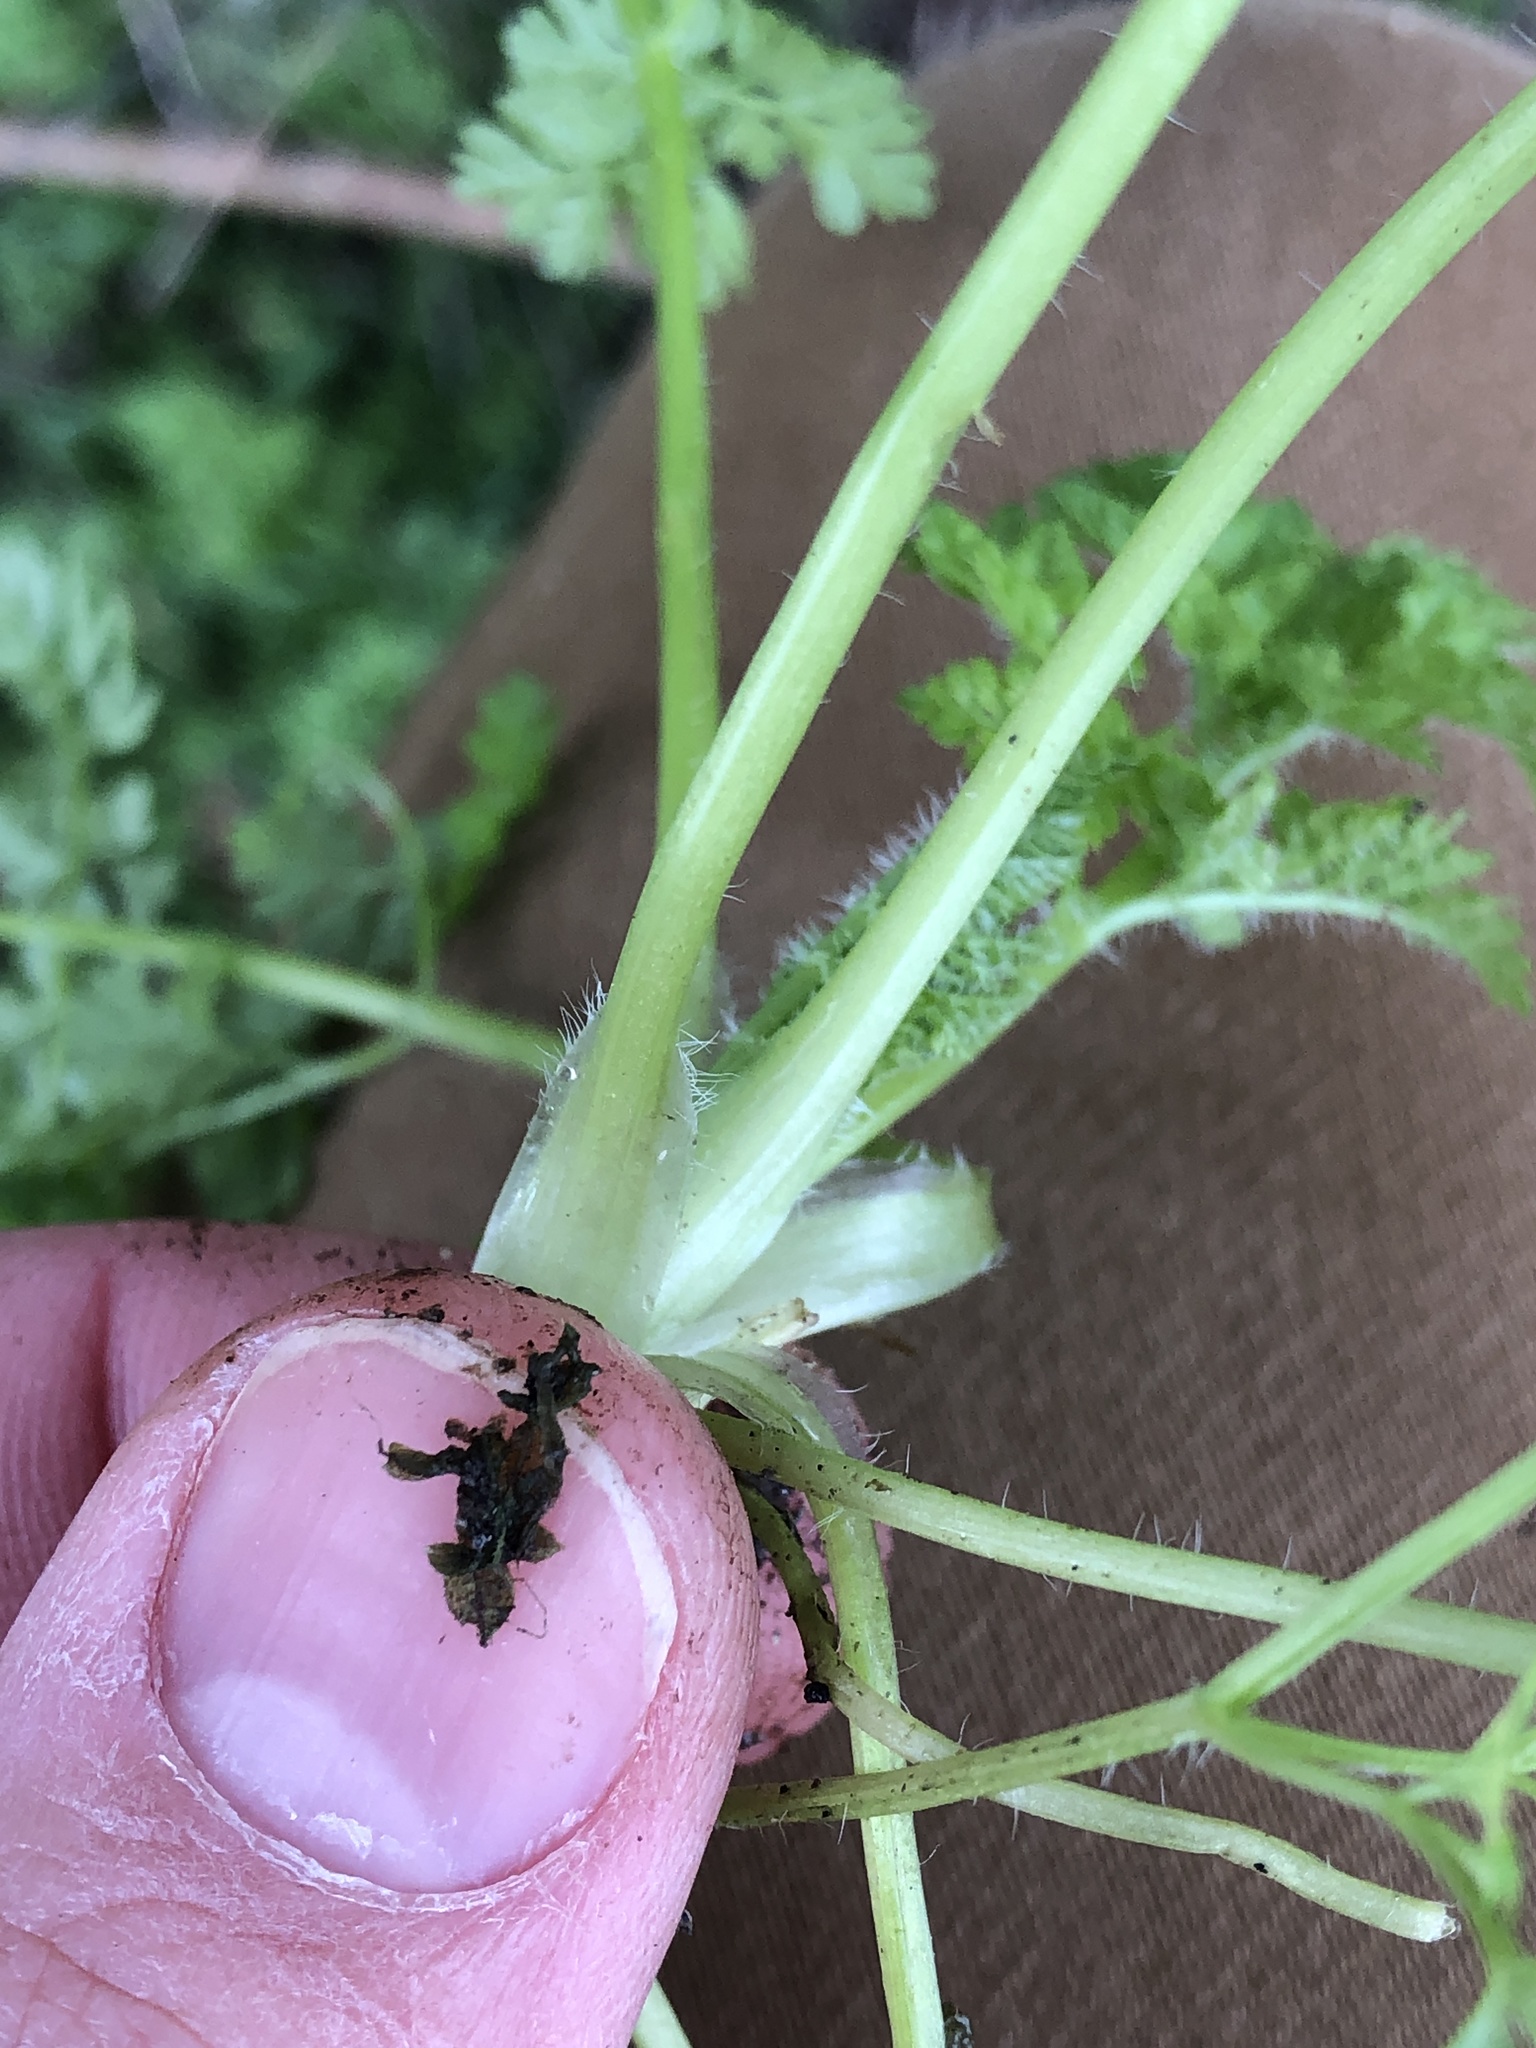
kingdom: Plantae
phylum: Tracheophyta
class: Magnoliopsida
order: Apiales
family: Apiaceae
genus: Anthriscus
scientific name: Anthriscus caucalis
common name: Bur chervil
